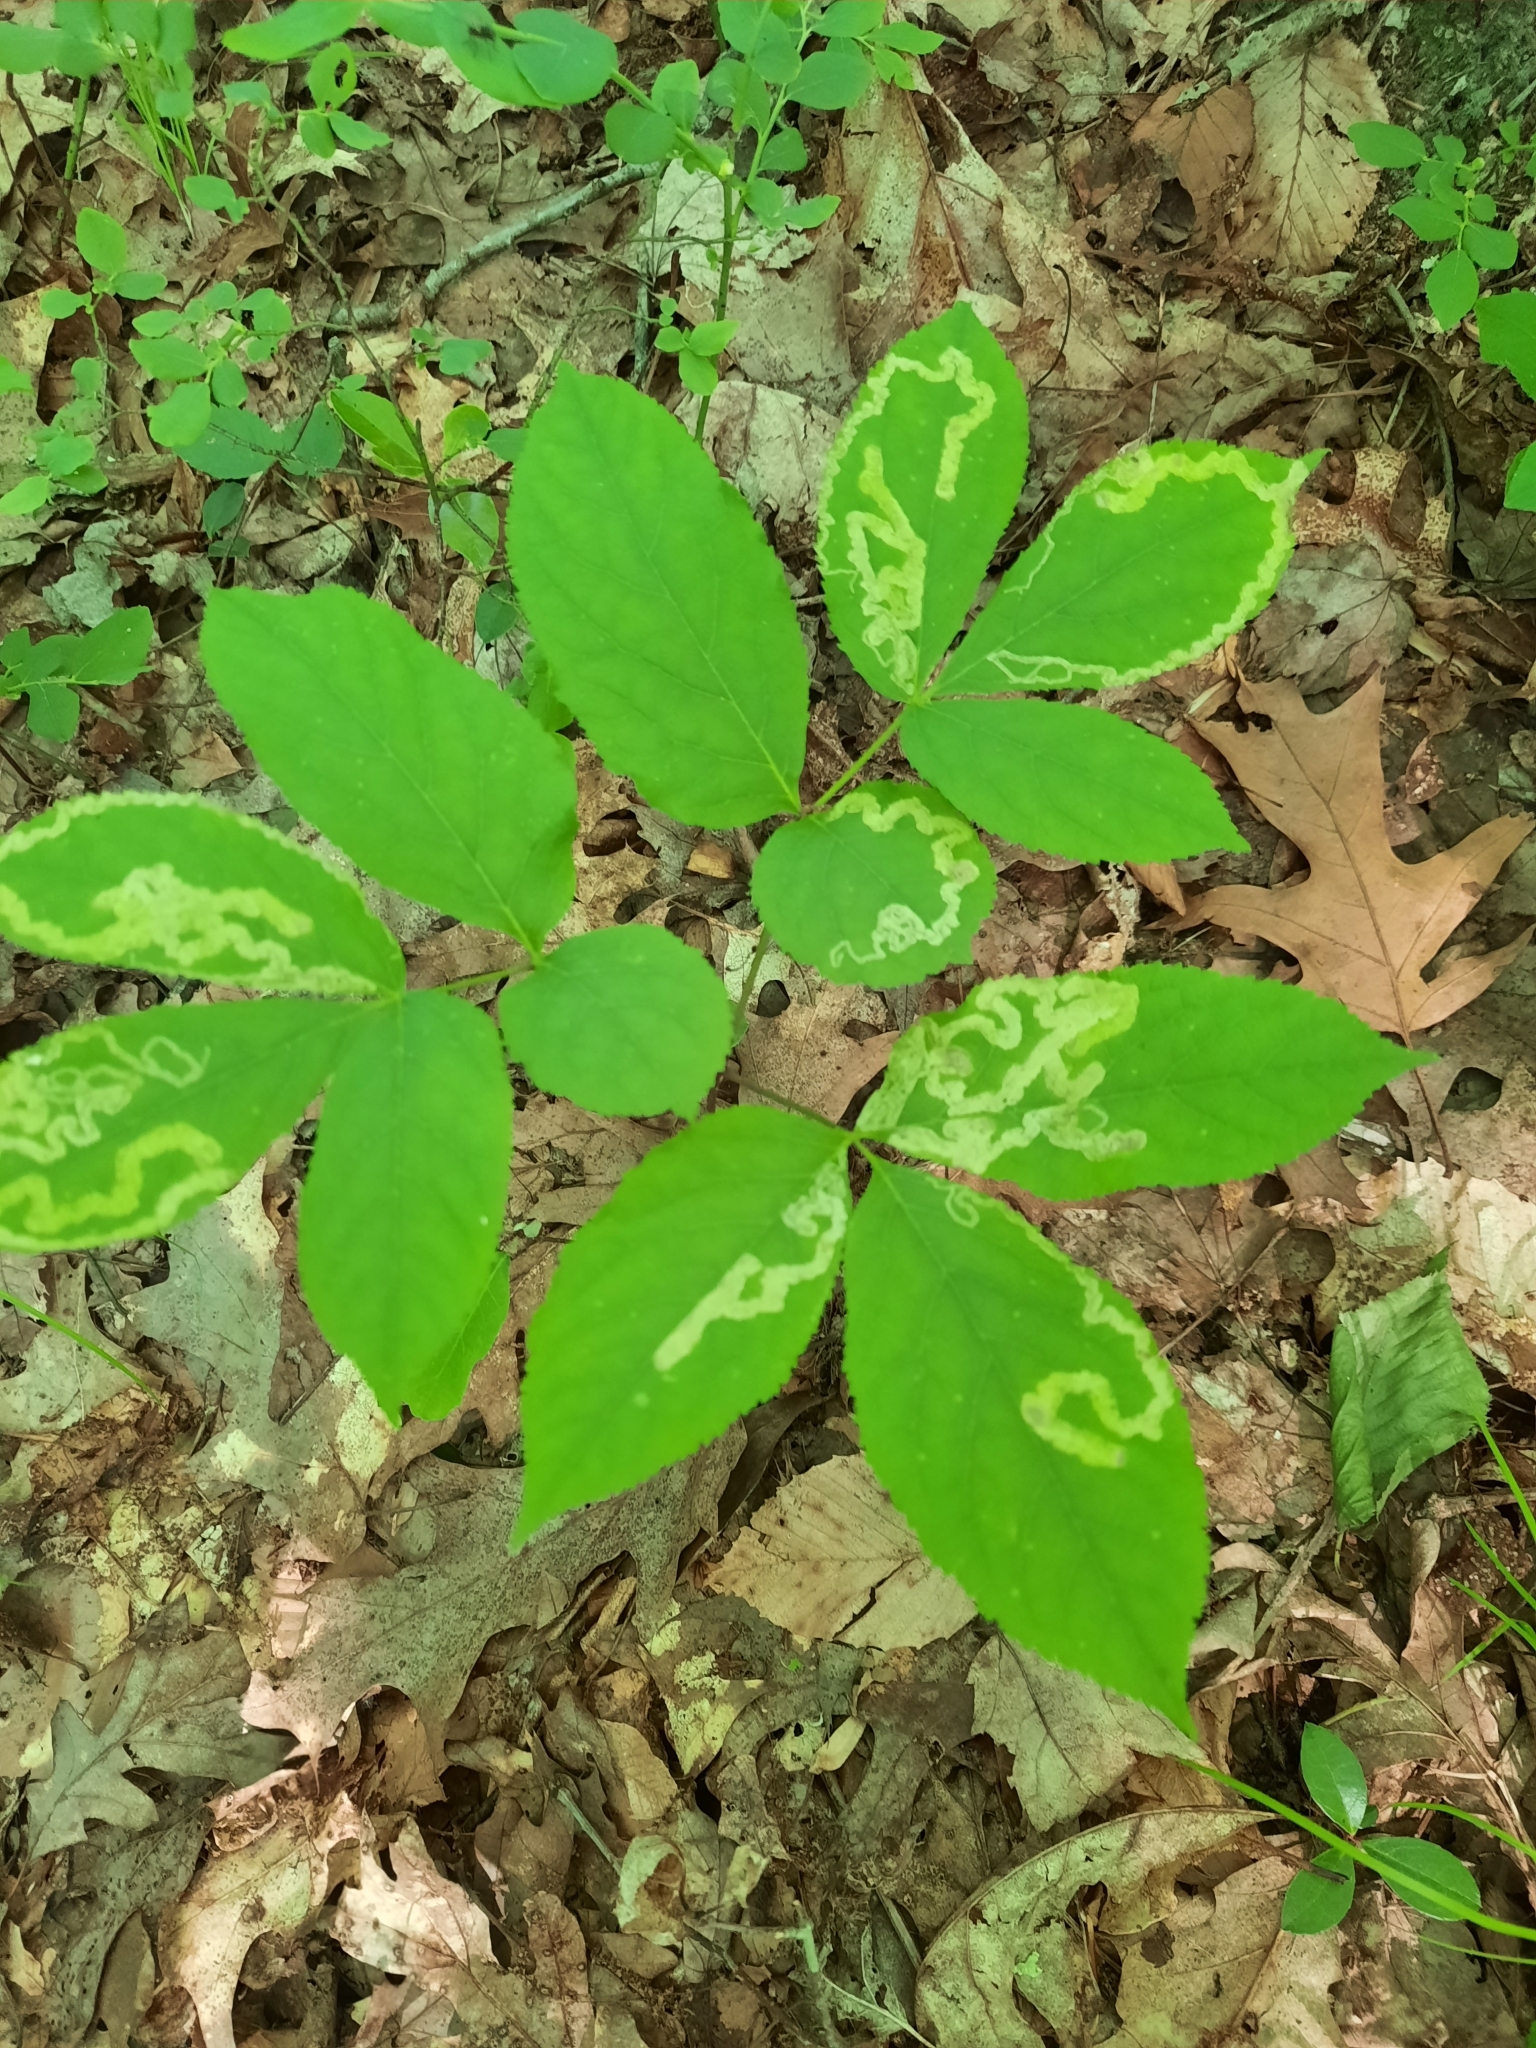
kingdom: Plantae
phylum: Tracheophyta
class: Magnoliopsida
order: Apiales
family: Araliaceae
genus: Aralia
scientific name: Aralia nudicaulis
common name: Wild sarsaparilla
